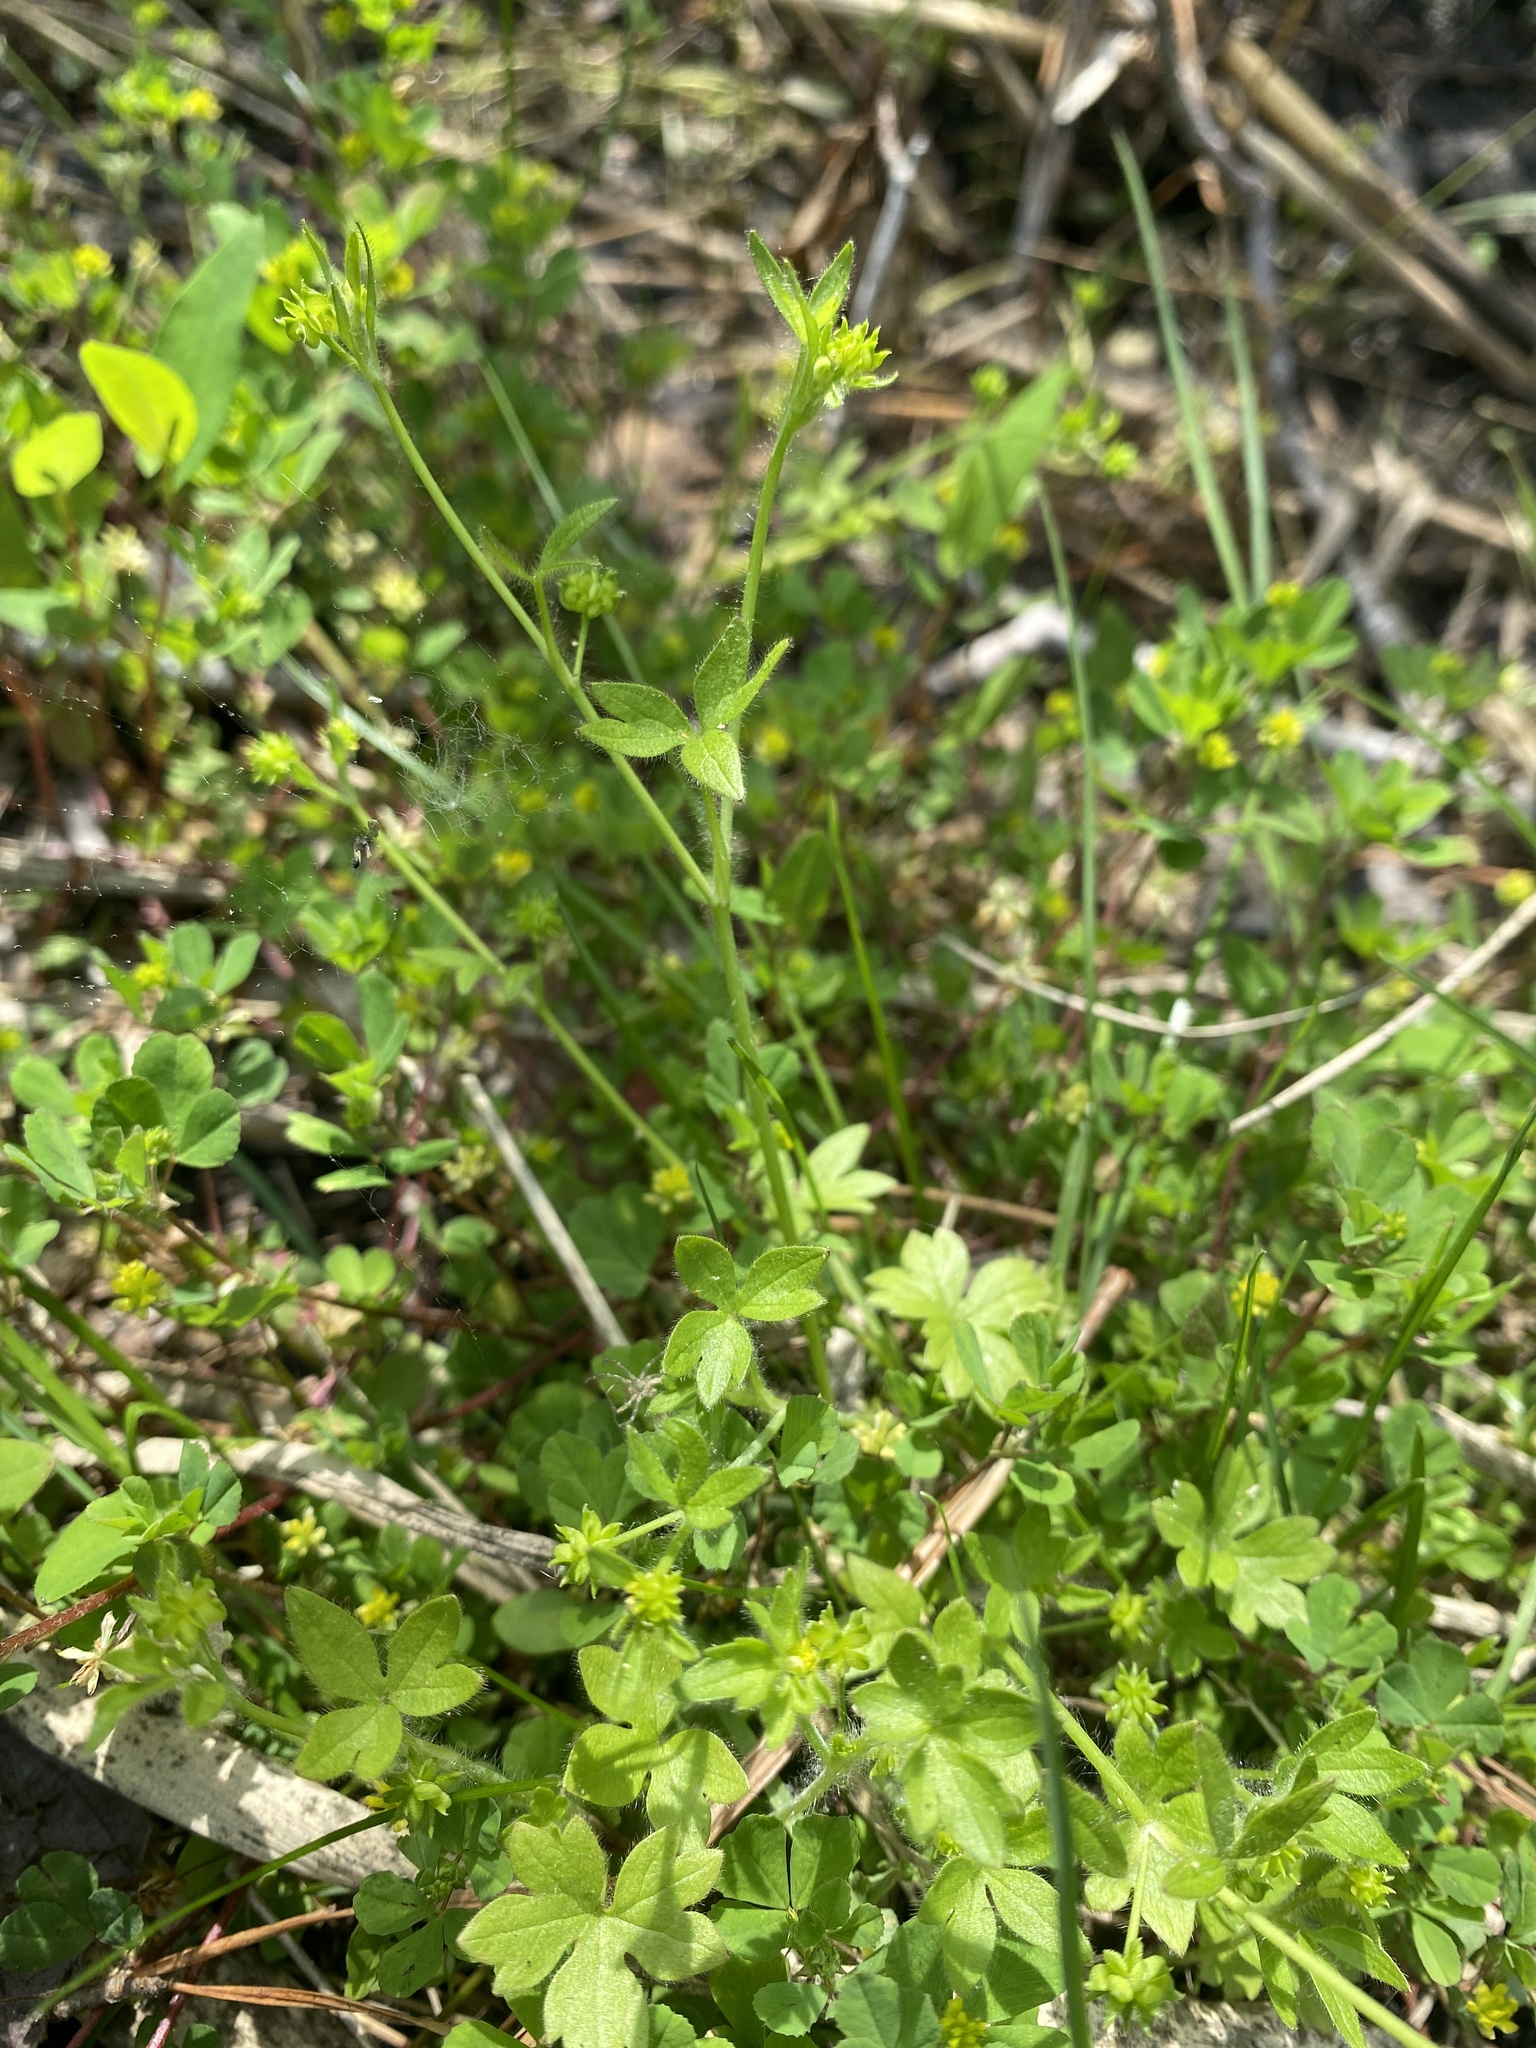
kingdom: Plantae
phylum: Tracheophyta
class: Magnoliopsida
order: Ranunculales
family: Ranunculaceae
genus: Ranunculus
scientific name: Ranunculus parviflorus
